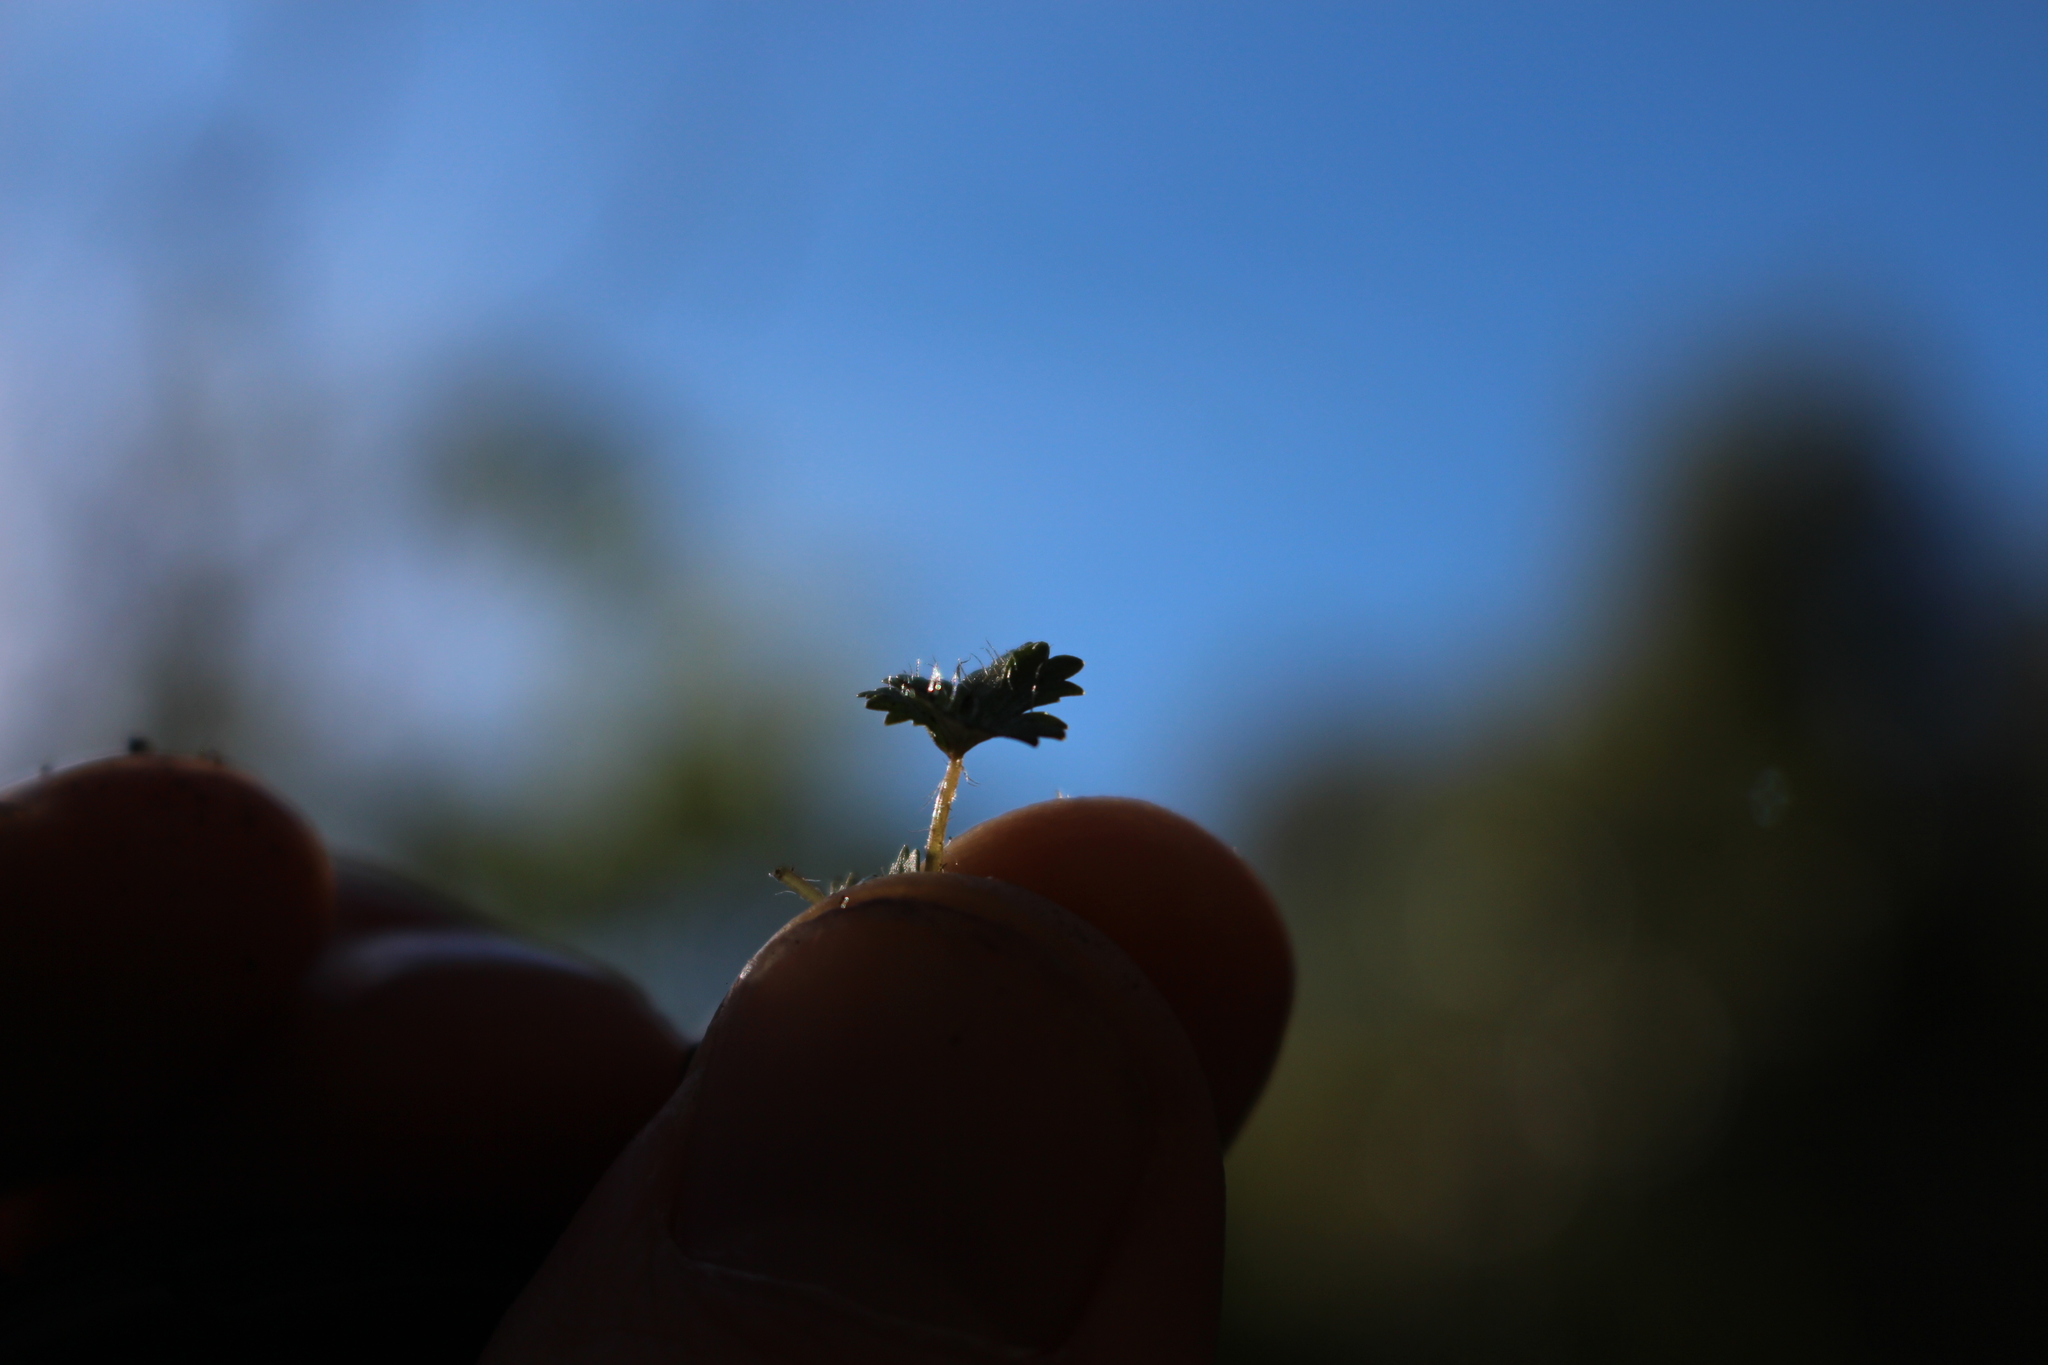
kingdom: Plantae
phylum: Tracheophyta
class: Magnoliopsida
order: Apiales
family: Araliaceae
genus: Hydrocotyle
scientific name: Hydrocotyle moschata
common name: Hairy pennywort
